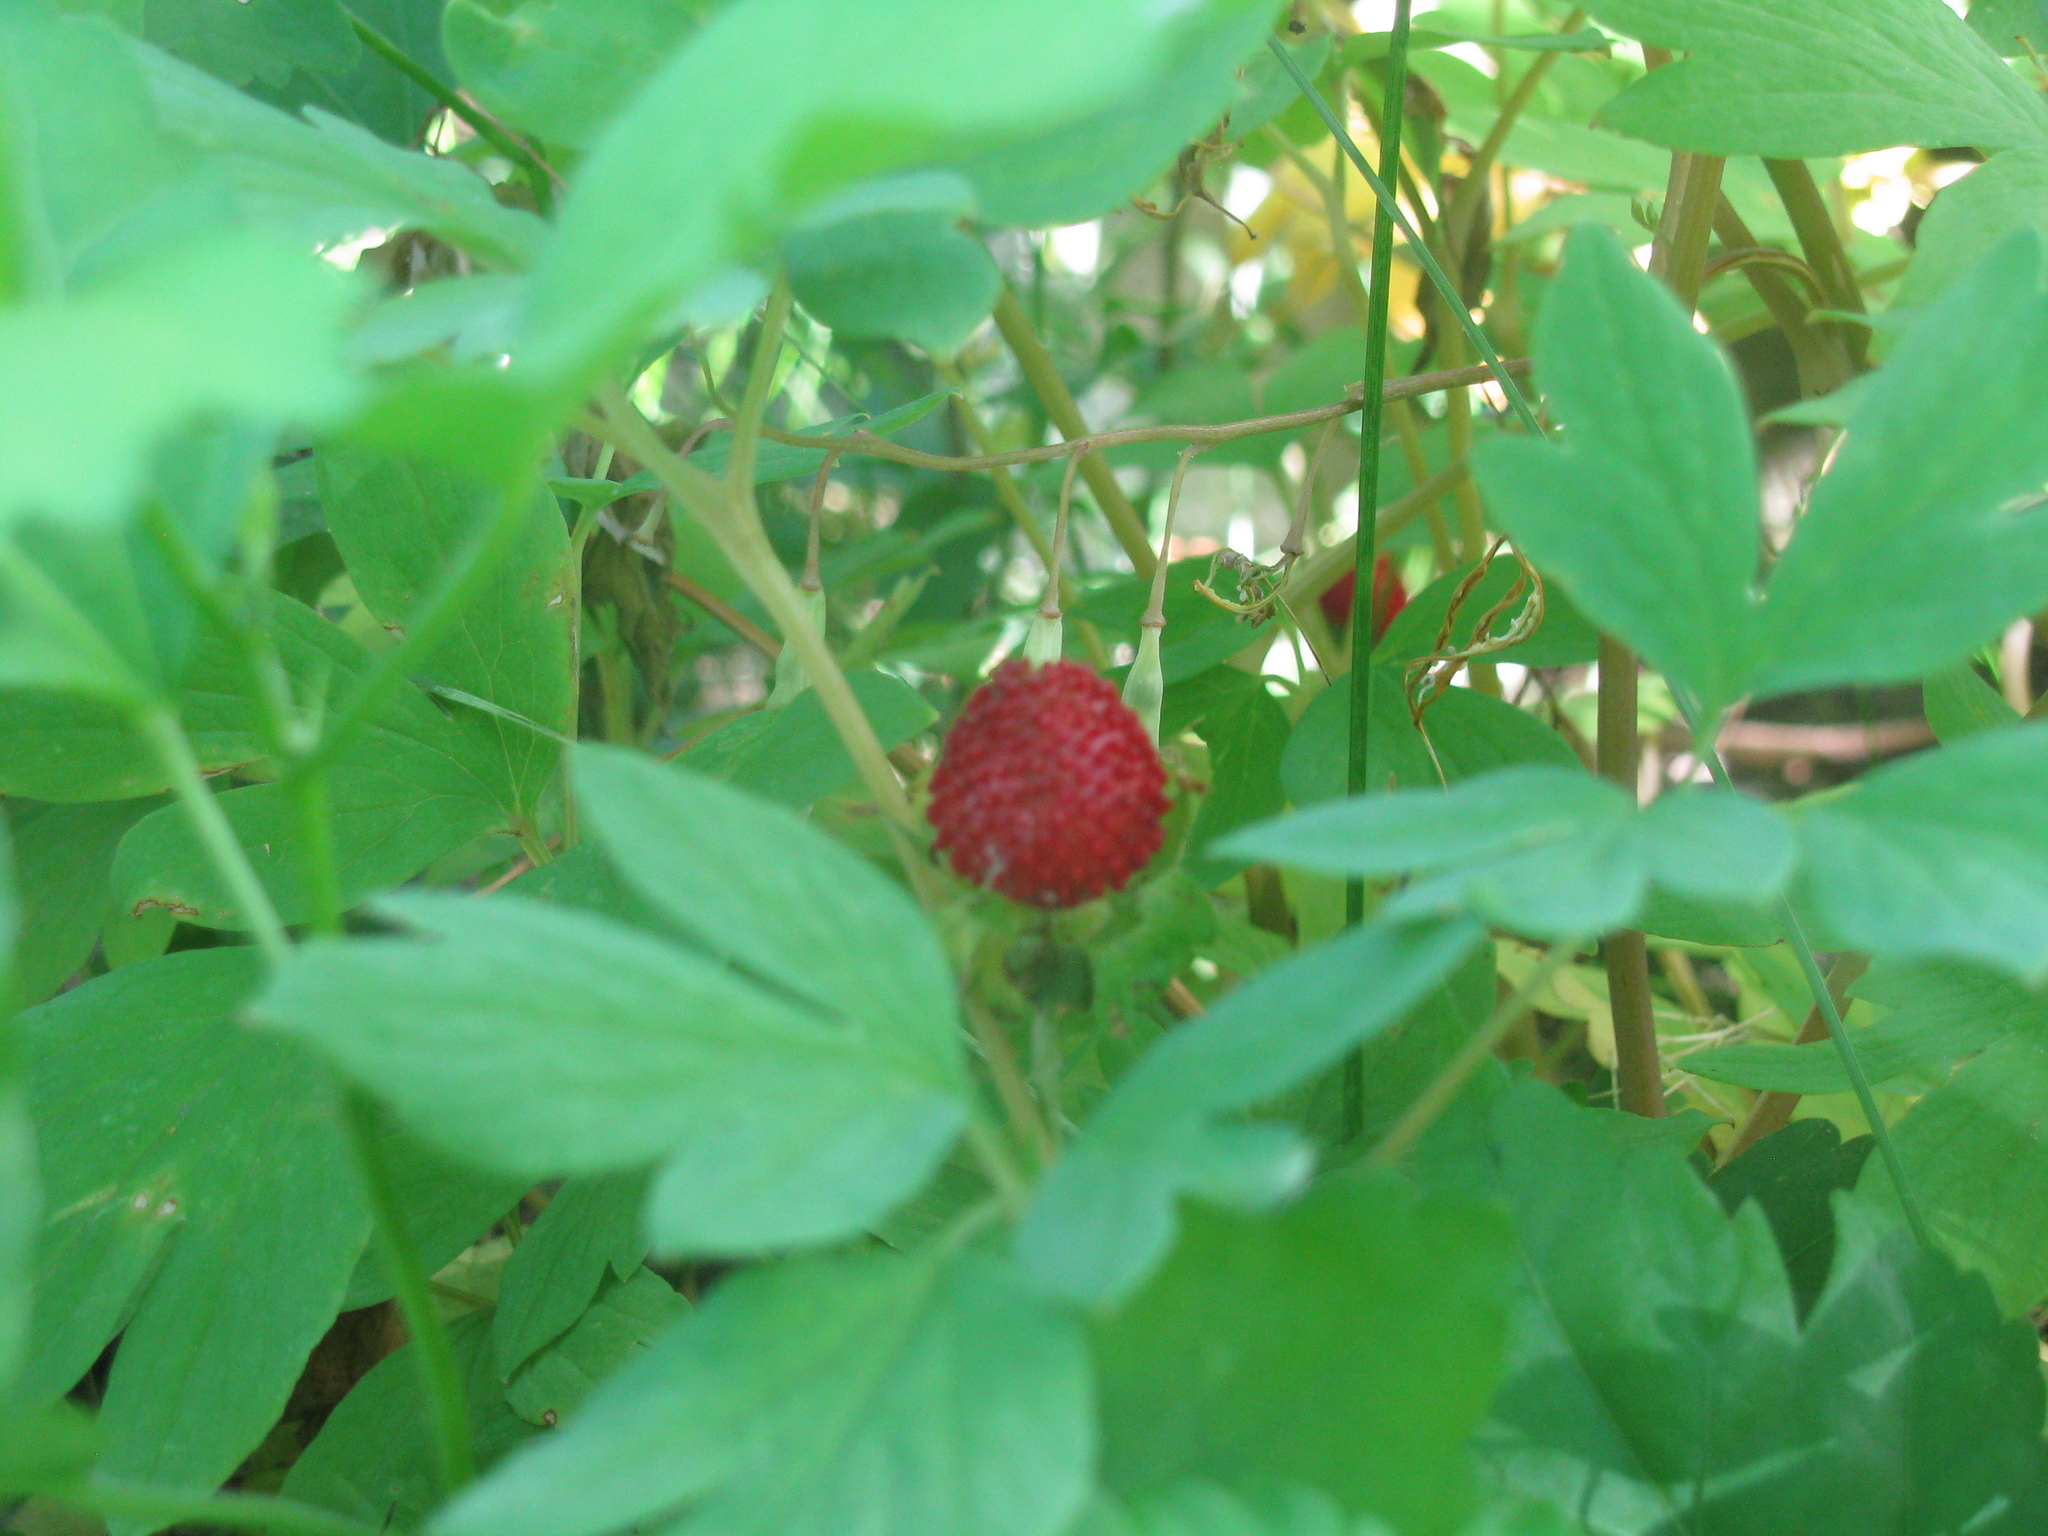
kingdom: Plantae
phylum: Tracheophyta
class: Magnoliopsida
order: Rosales
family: Rosaceae
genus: Potentilla
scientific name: Potentilla indica
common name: Yellow-flowered strawberry
